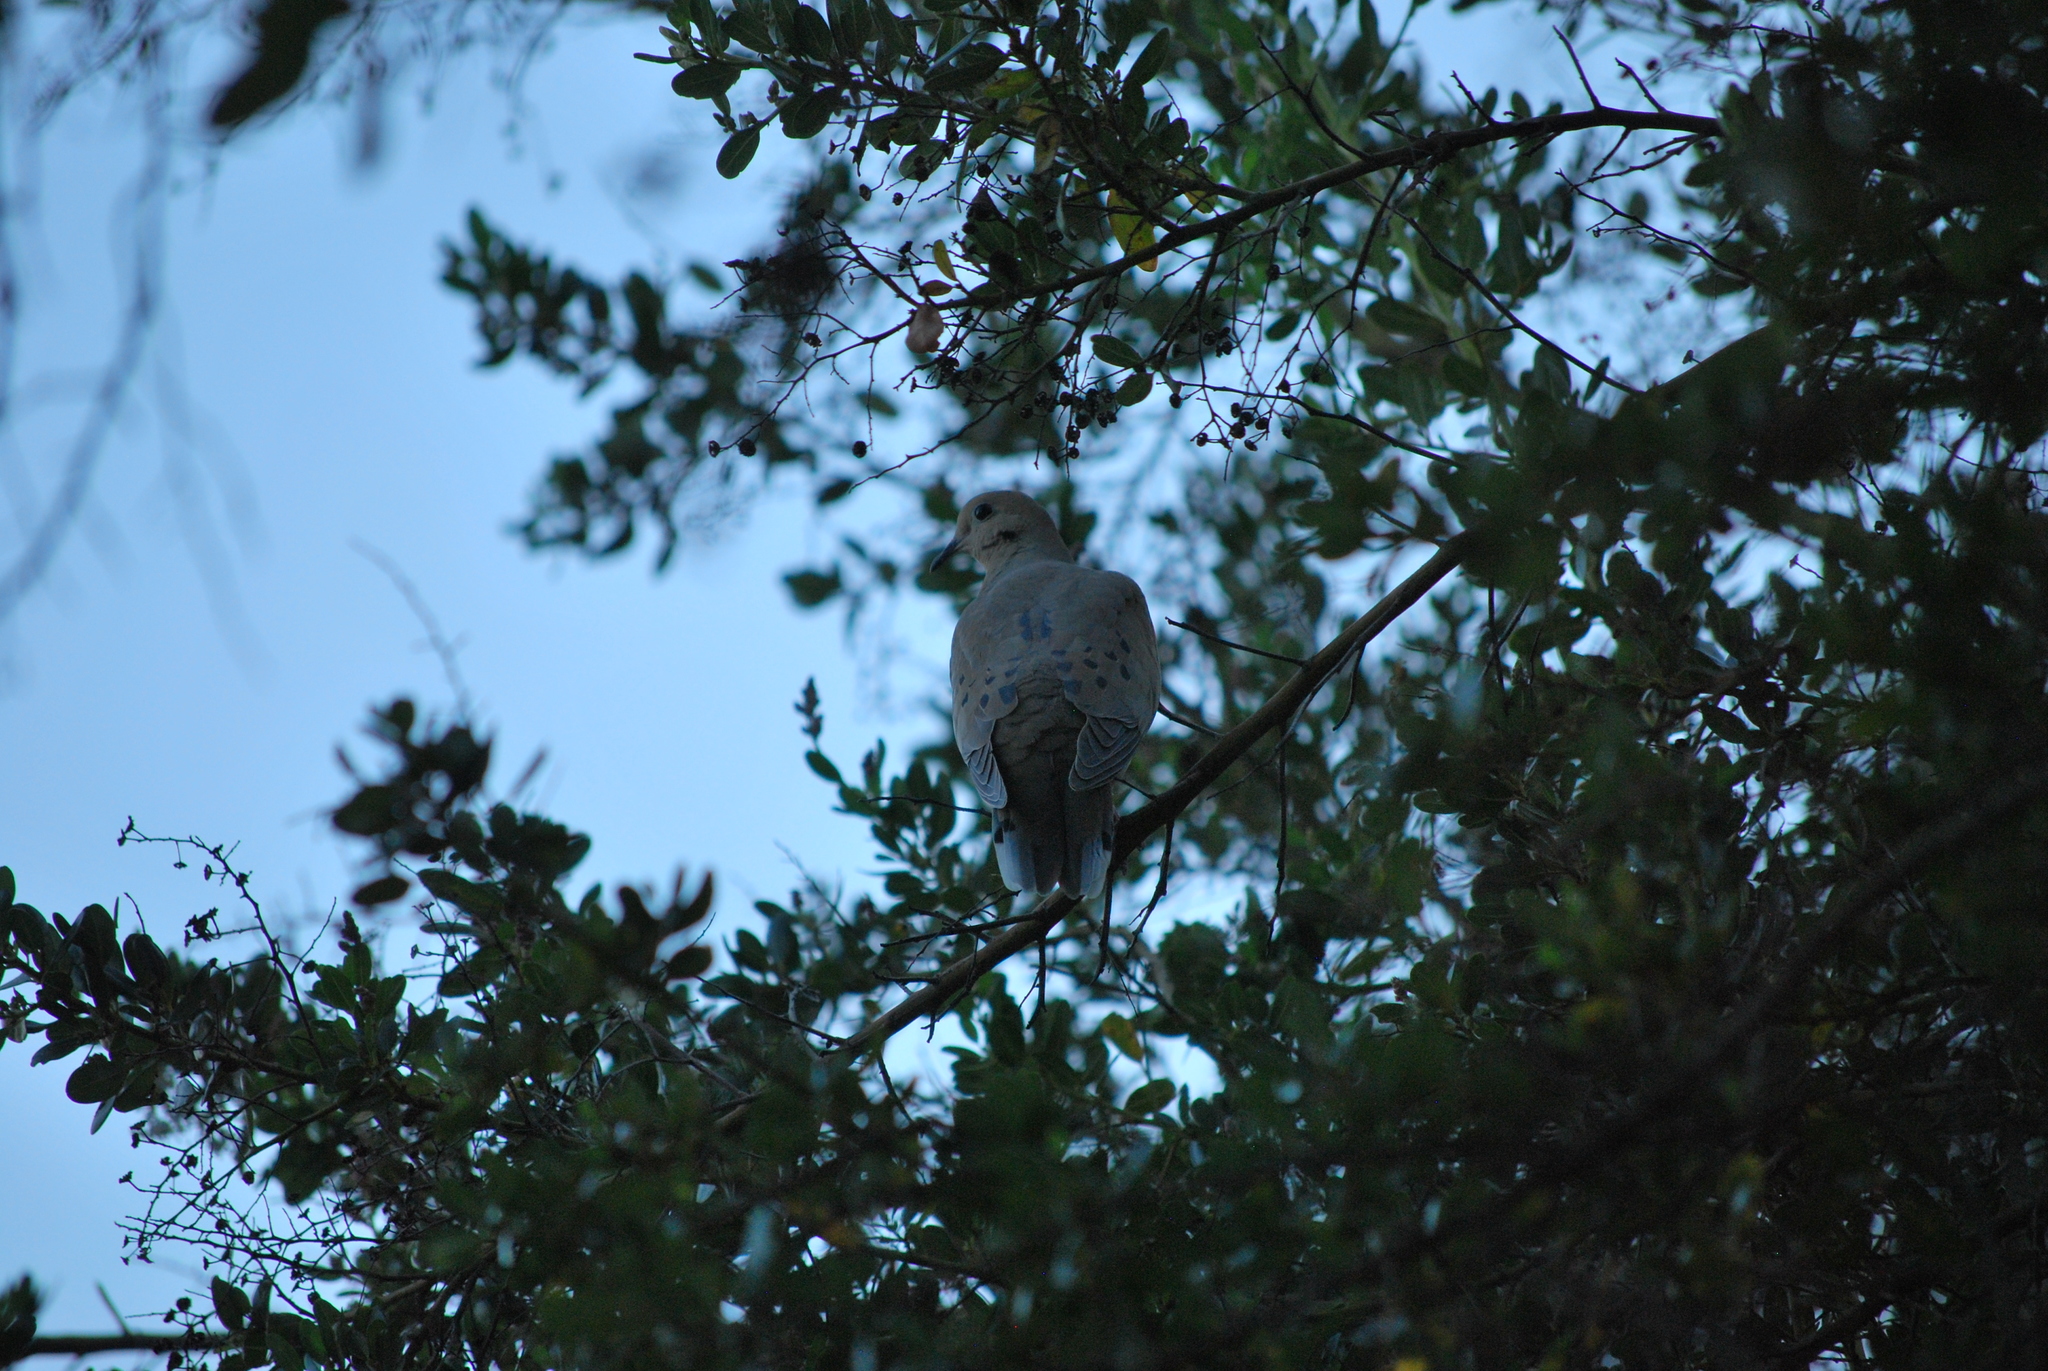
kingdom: Animalia
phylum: Chordata
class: Aves
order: Columbiformes
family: Columbidae
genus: Zenaida
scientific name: Zenaida macroura
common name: Mourning dove
